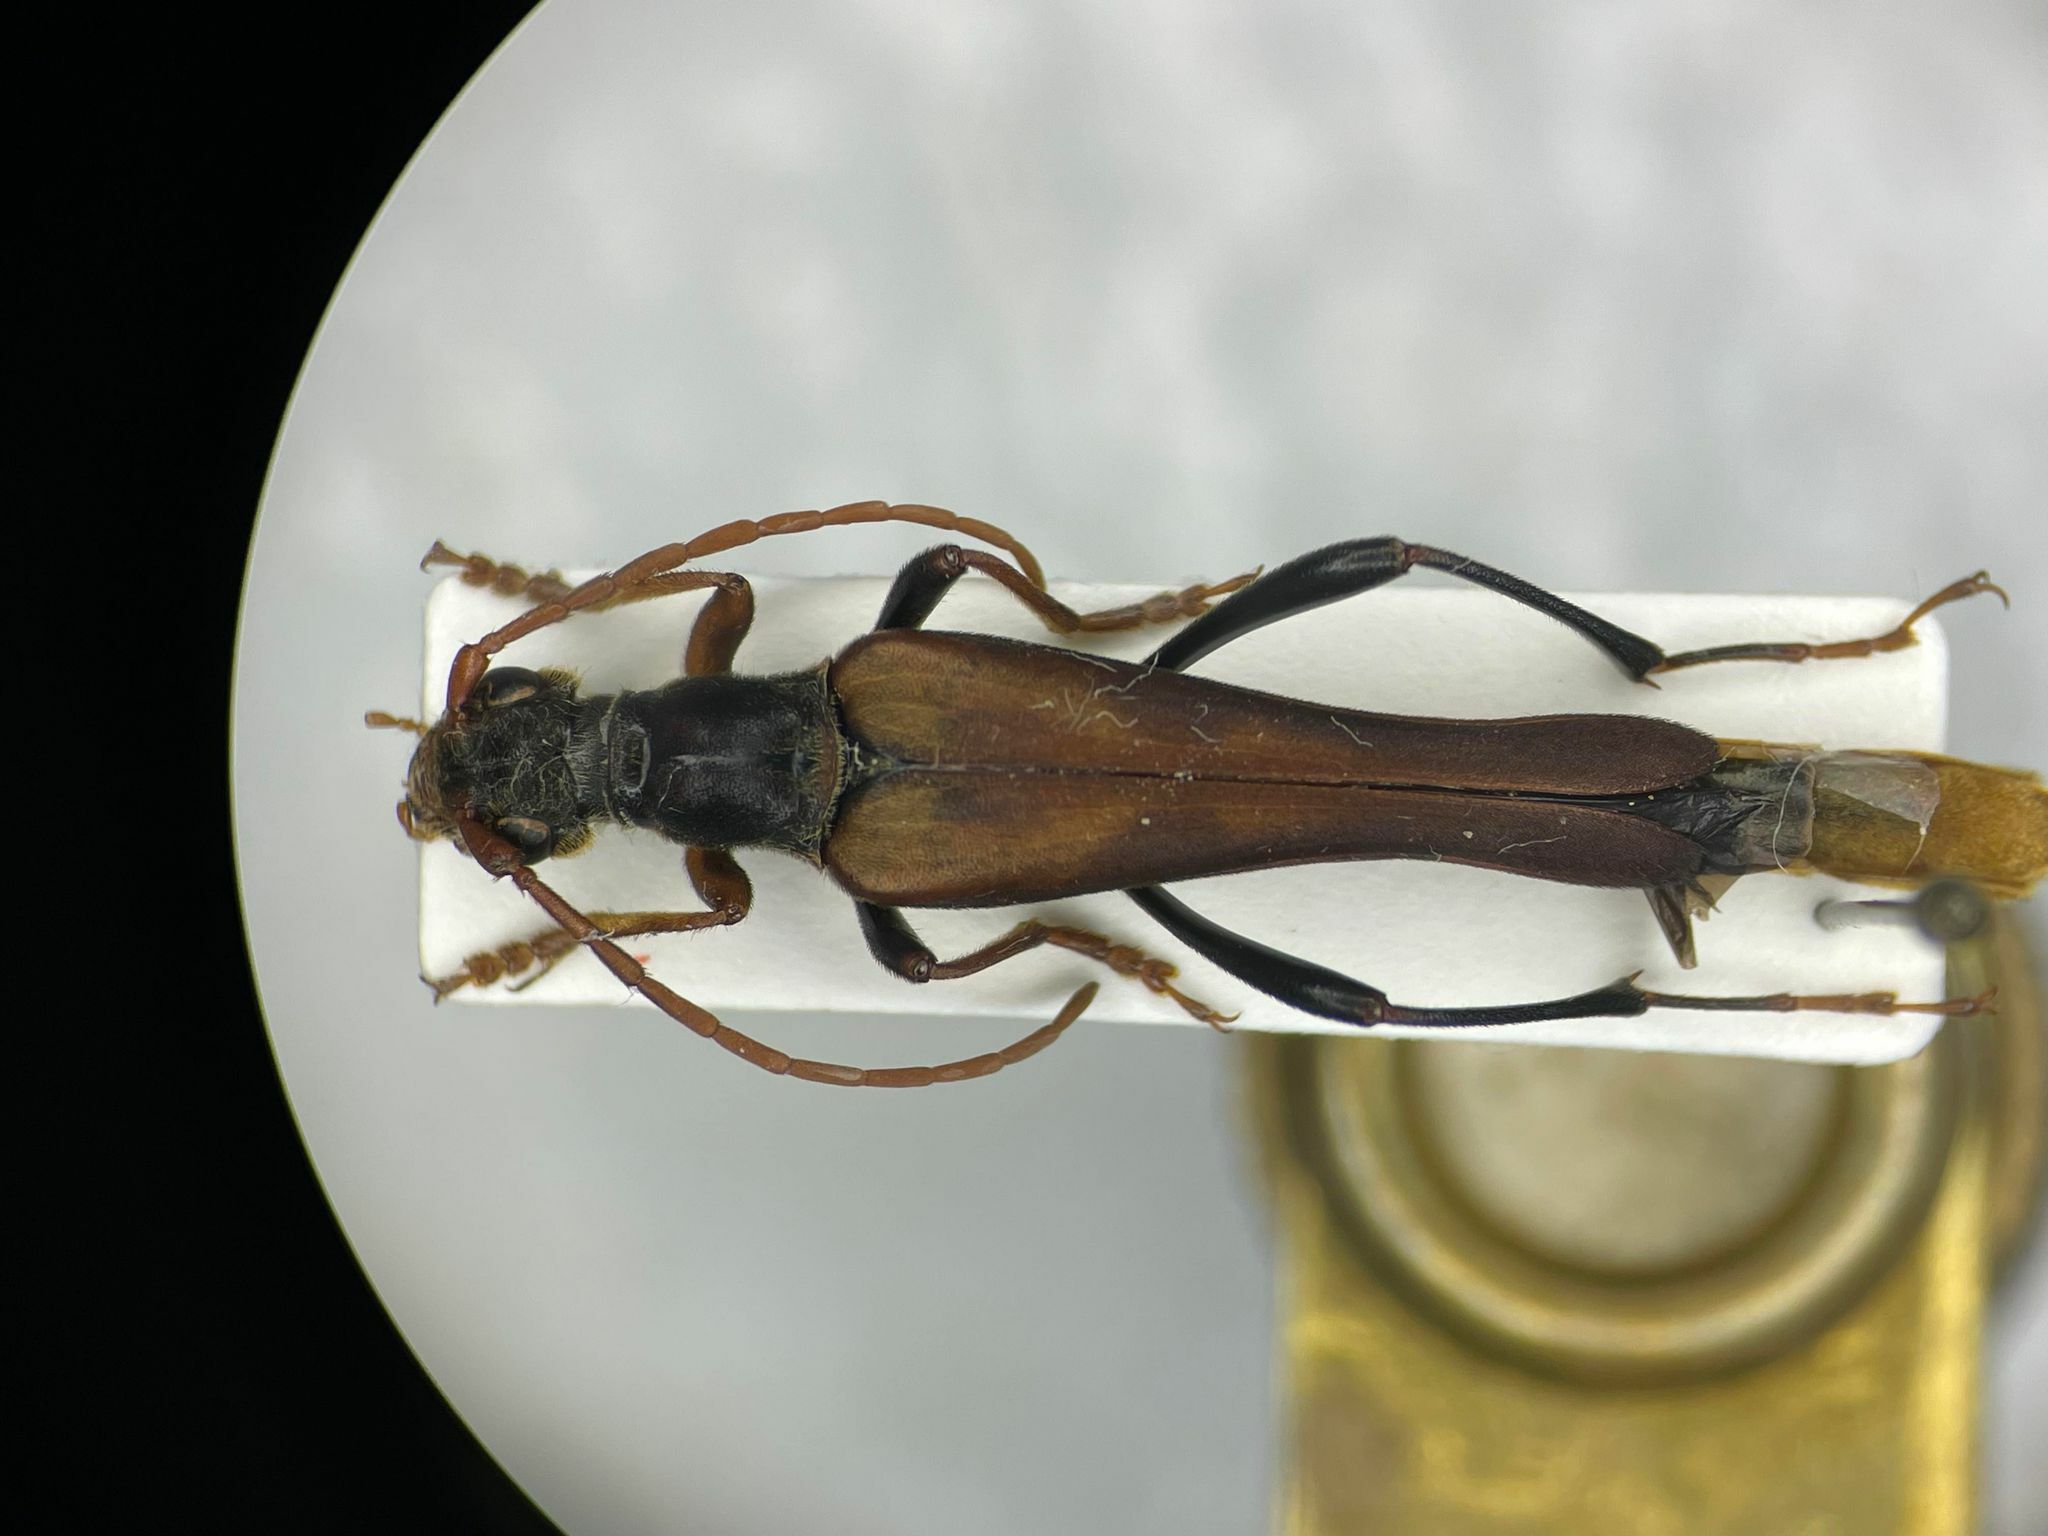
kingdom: Animalia
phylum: Arthropoda
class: Insecta
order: Coleoptera
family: Cerambycidae
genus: Bellamira
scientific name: Bellamira scalaris
